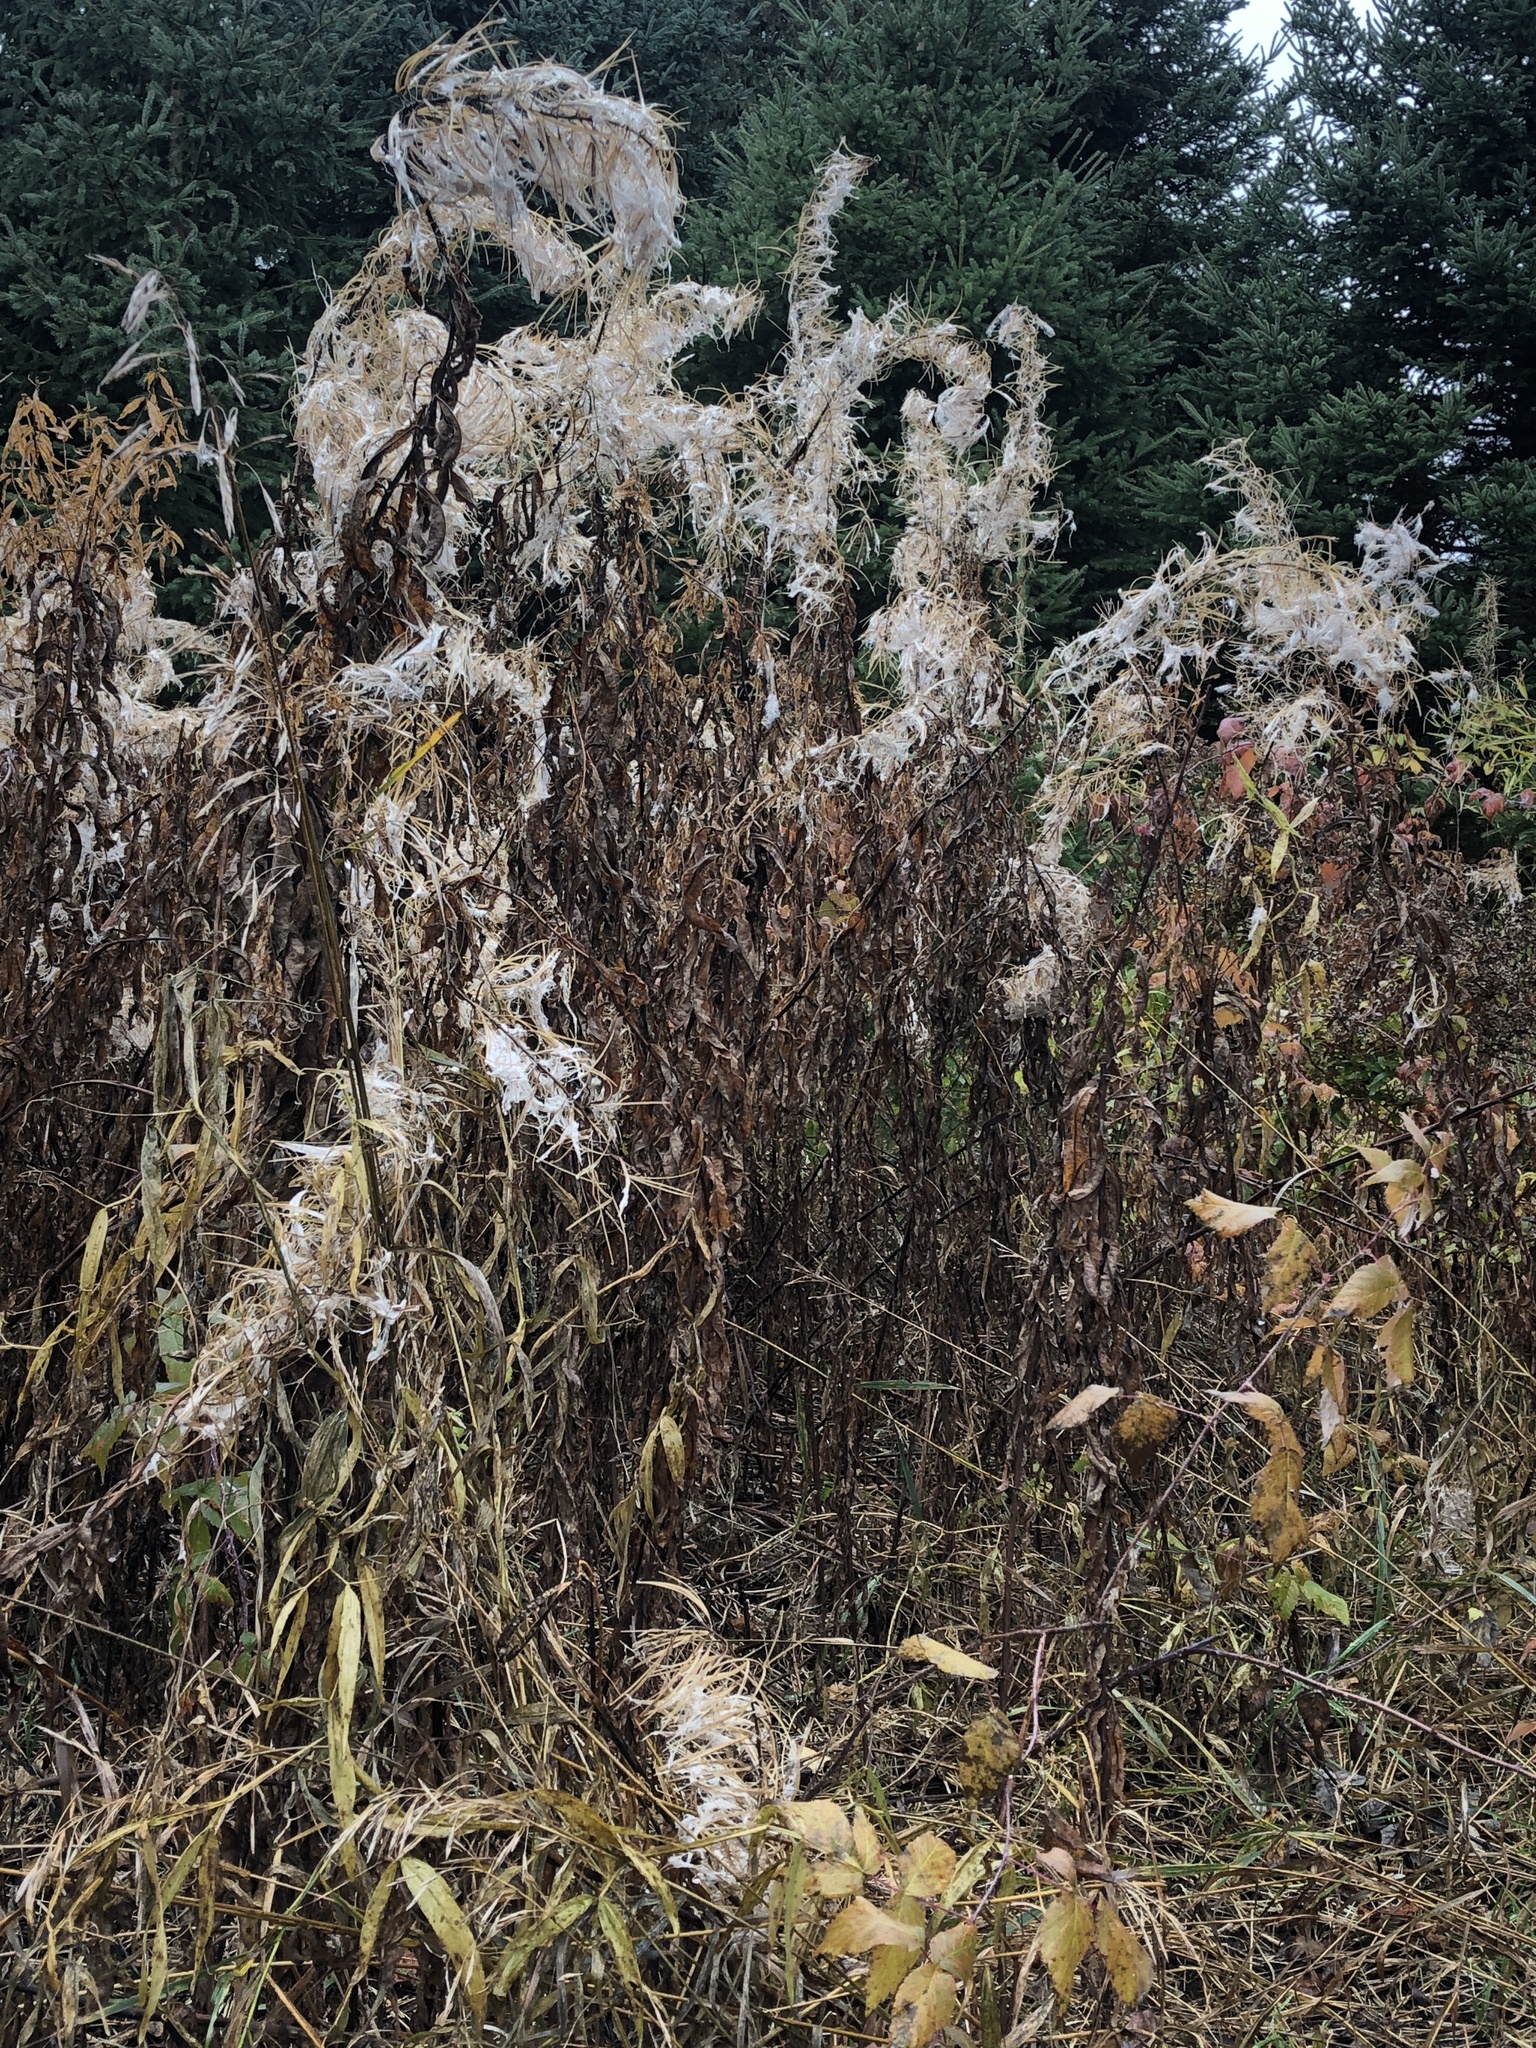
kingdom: Plantae
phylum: Tracheophyta
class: Magnoliopsida
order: Myrtales
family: Onagraceae
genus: Chamaenerion
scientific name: Chamaenerion angustifolium
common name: Fireweed
